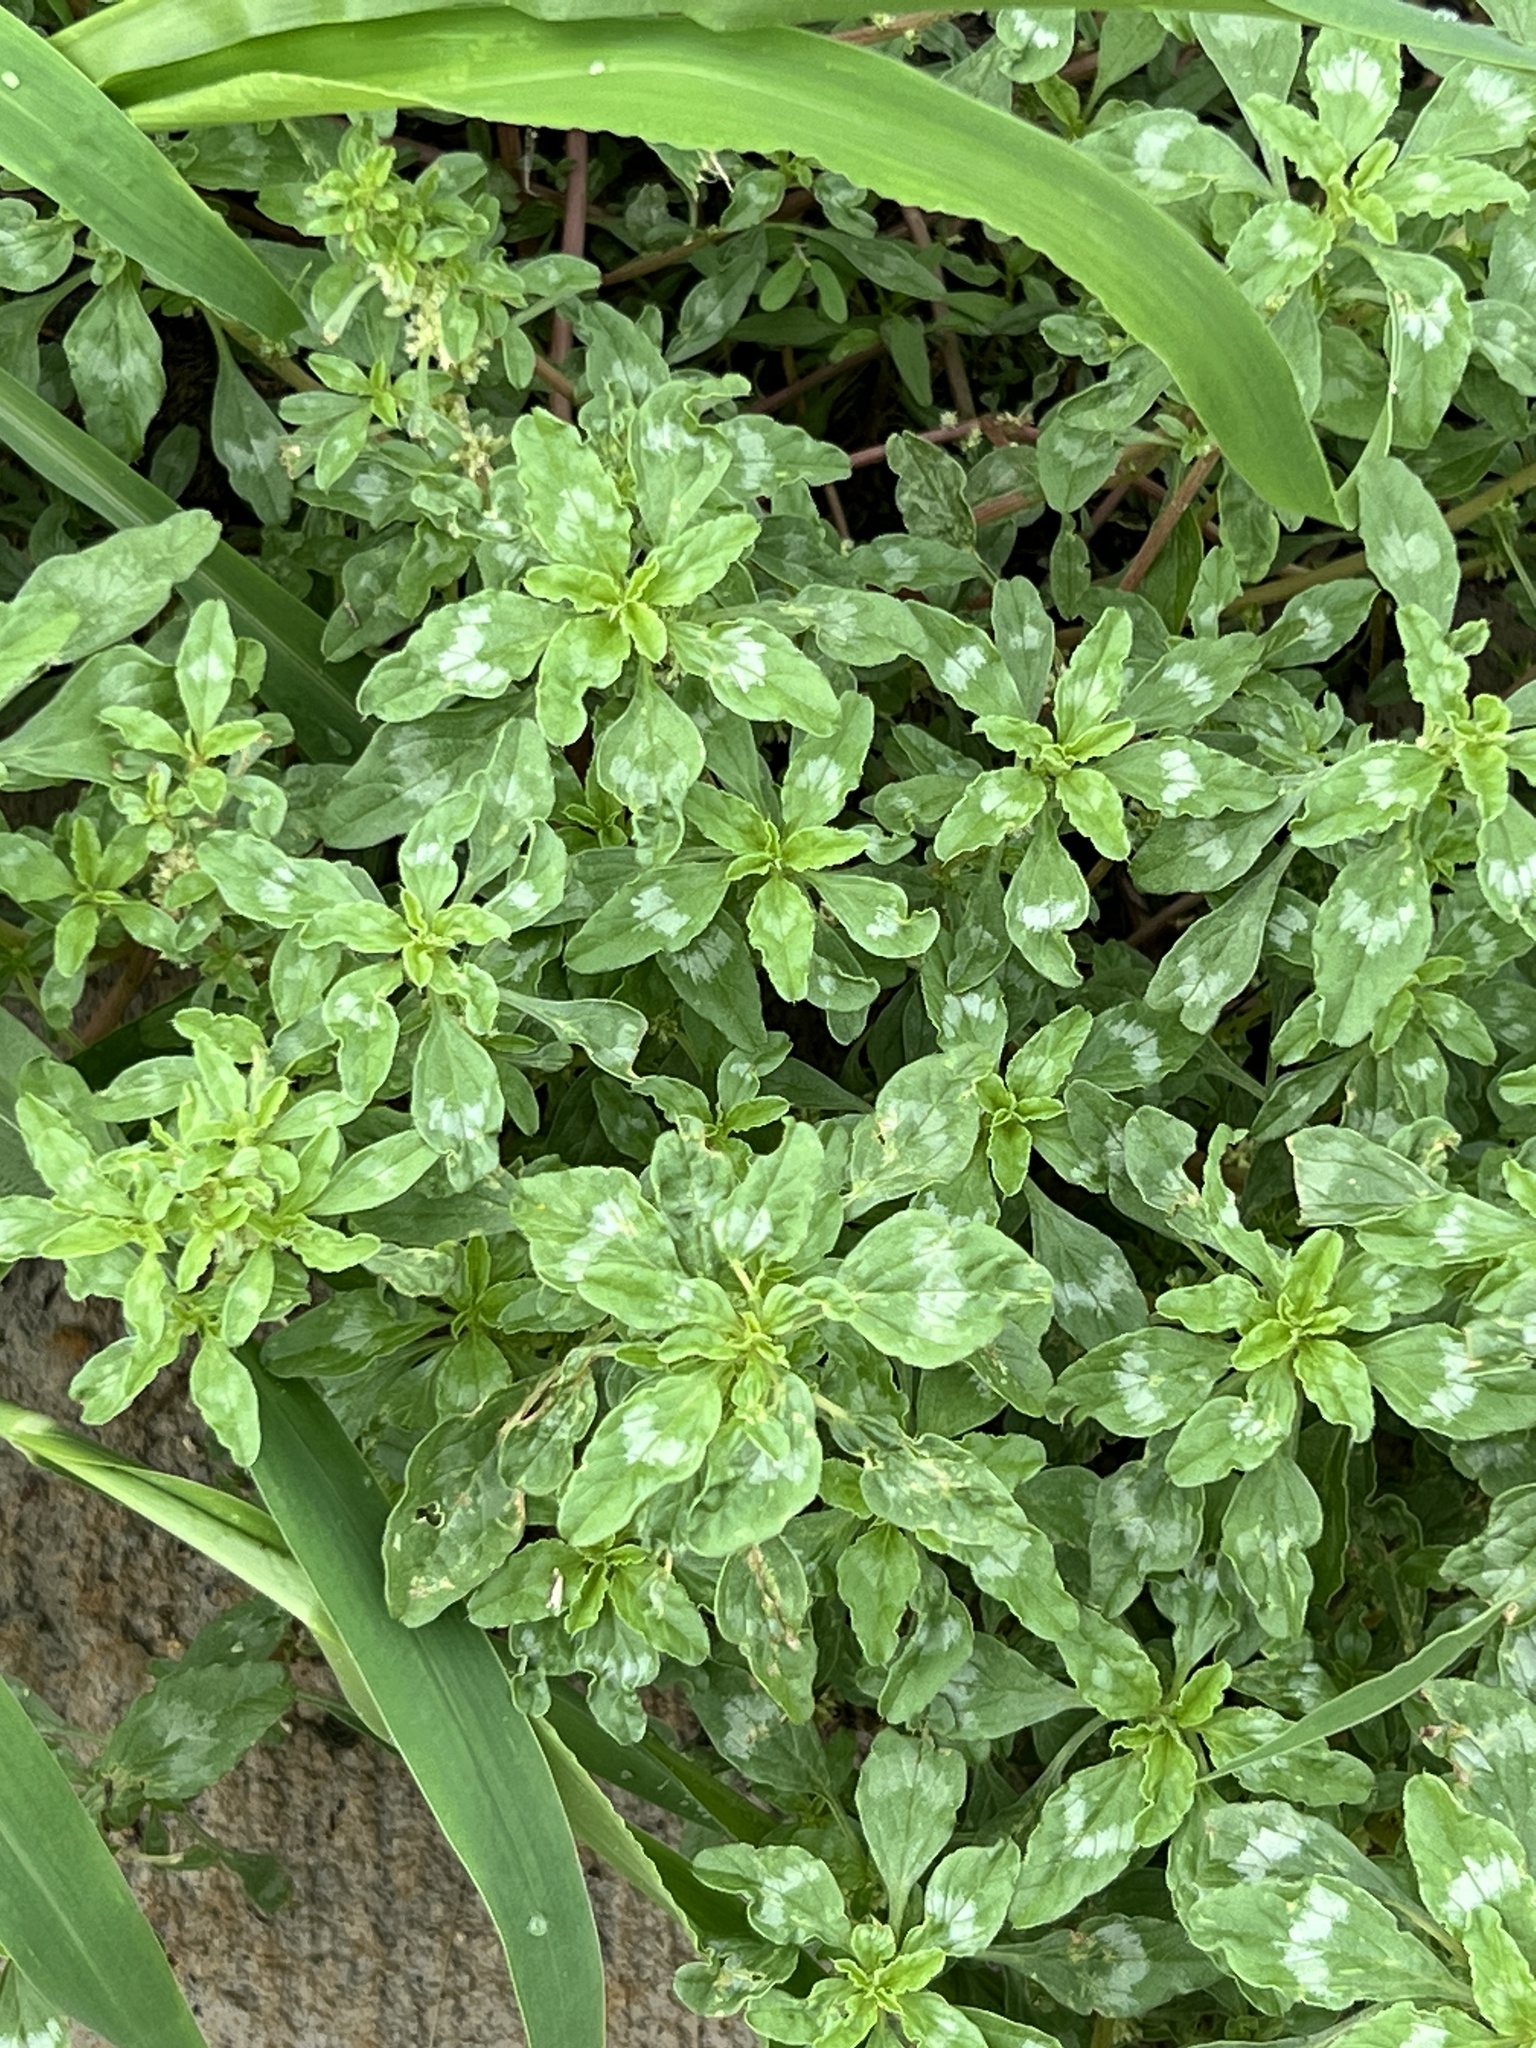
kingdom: Plantae
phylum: Tracheophyta
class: Magnoliopsida
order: Caryophyllales
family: Amaranthaceae
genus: Amaranthus
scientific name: Amaranthus polygonoides
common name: Tropical amaranth
